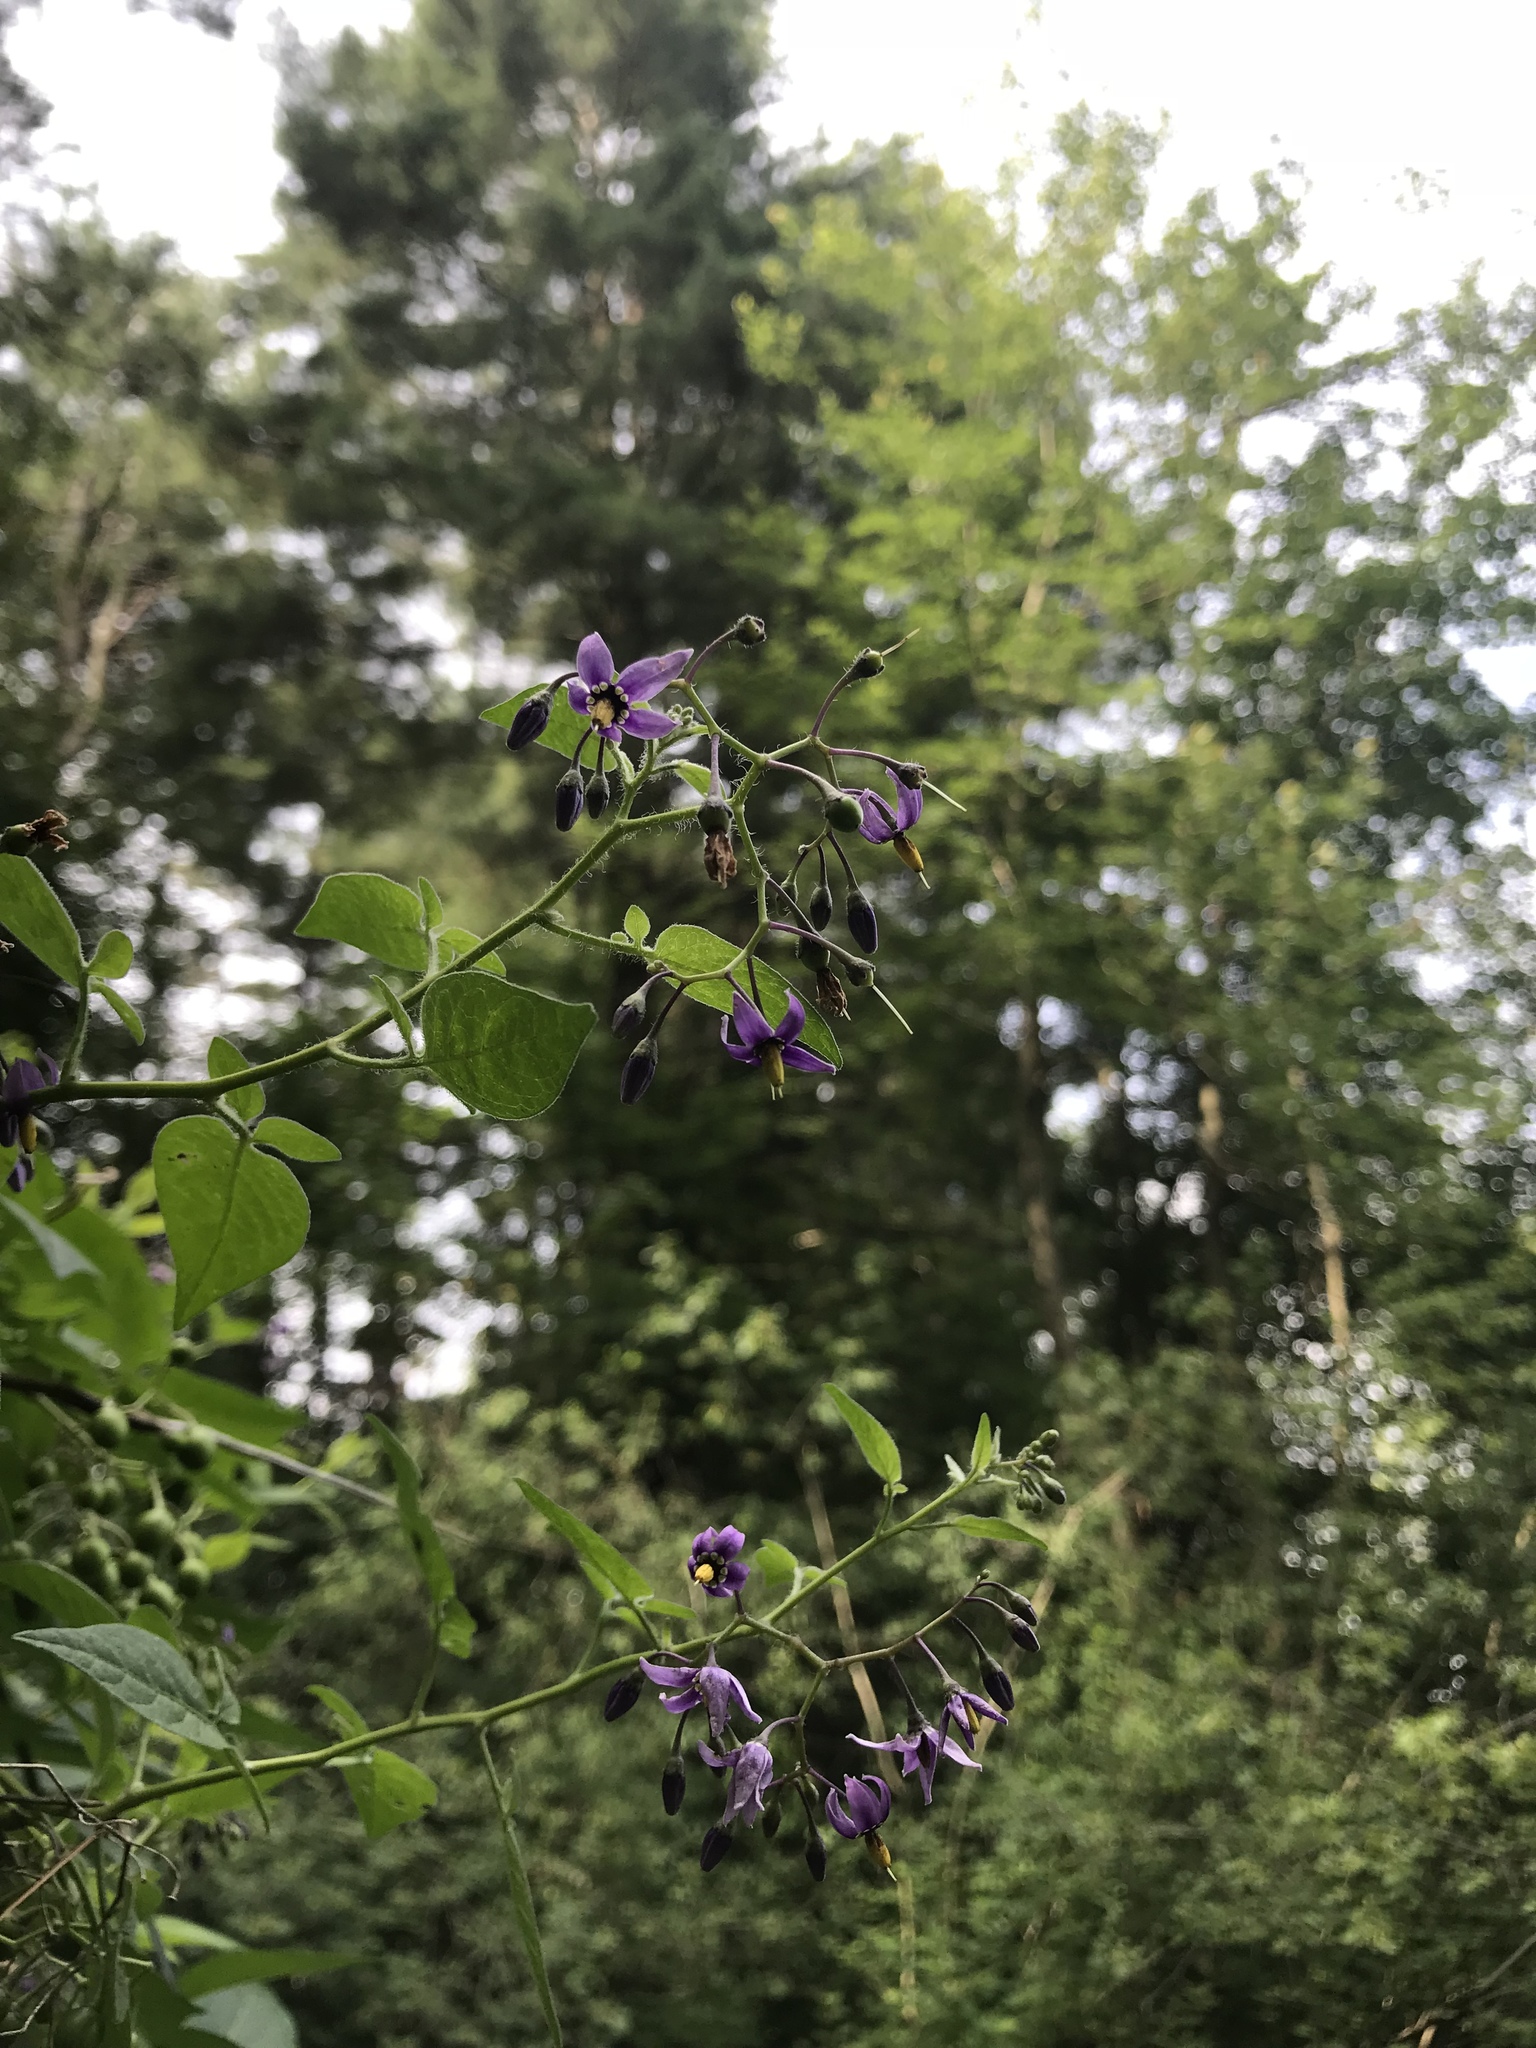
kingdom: Plantae
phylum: Tracheophyta
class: Magnoliopsida
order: Solanales
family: Solanaceae
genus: Solanum
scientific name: Solanum dulcamara
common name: Climbing nightshade
